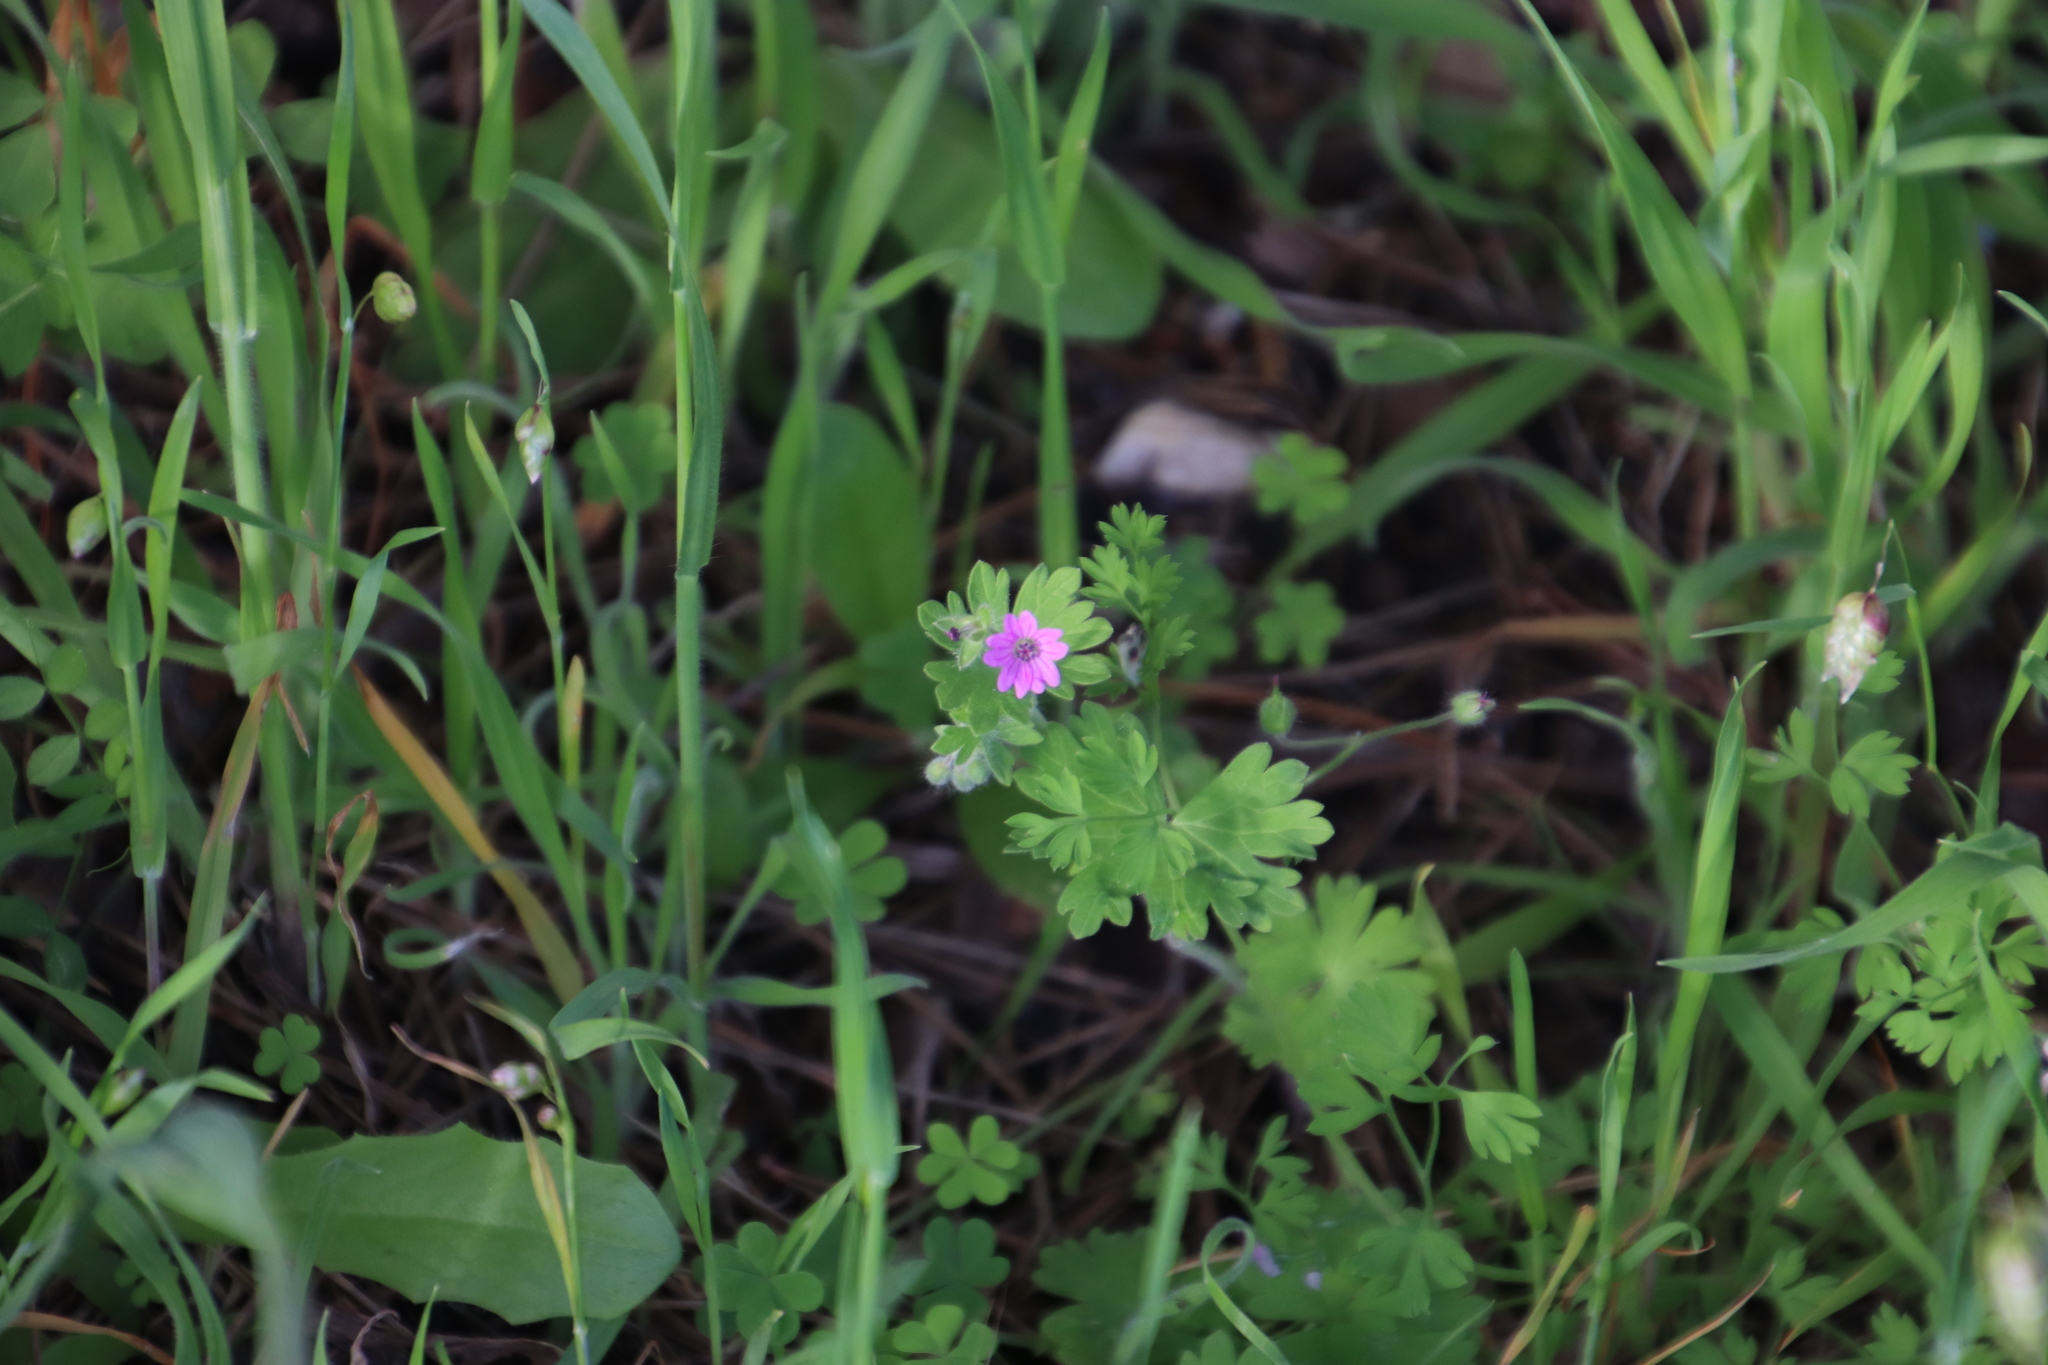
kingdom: Plantae
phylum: Tracheophyta
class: Magnoliopsida
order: Geraniales
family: Geraniaceae
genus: Geranium
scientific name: Geranium molle
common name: Dove's-foot crane's-bill
